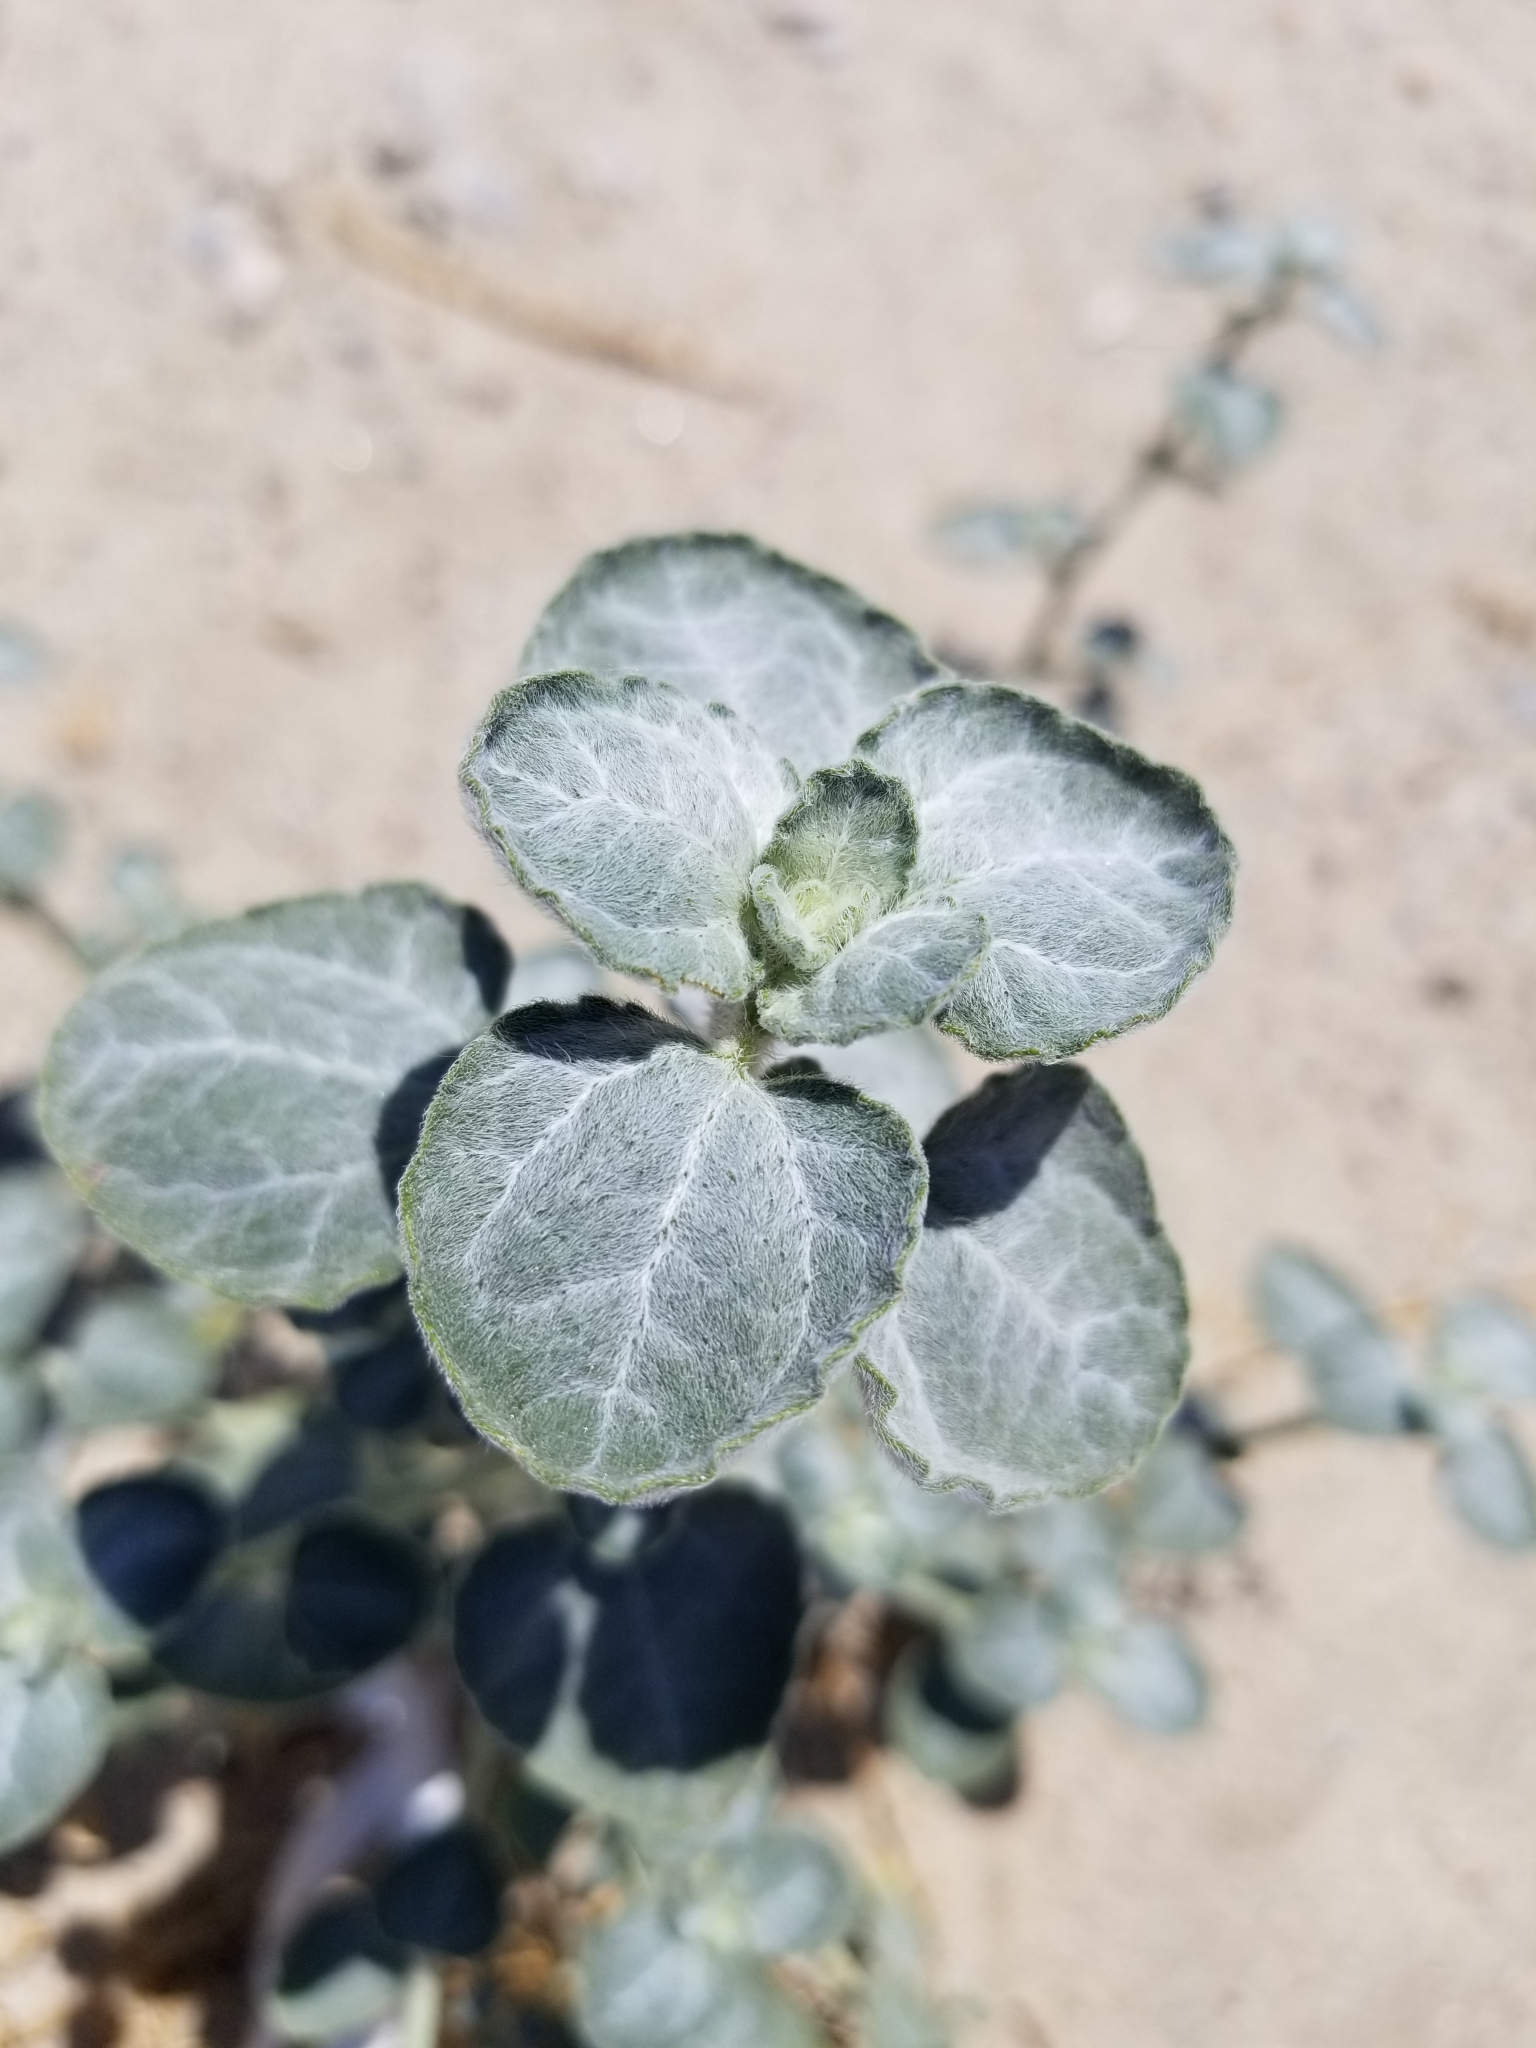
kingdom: Plantae
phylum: Tracheophyta
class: Magnoliopsida
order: Asterales
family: Asteraceae
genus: Dicoria
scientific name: Dicoria canescens
